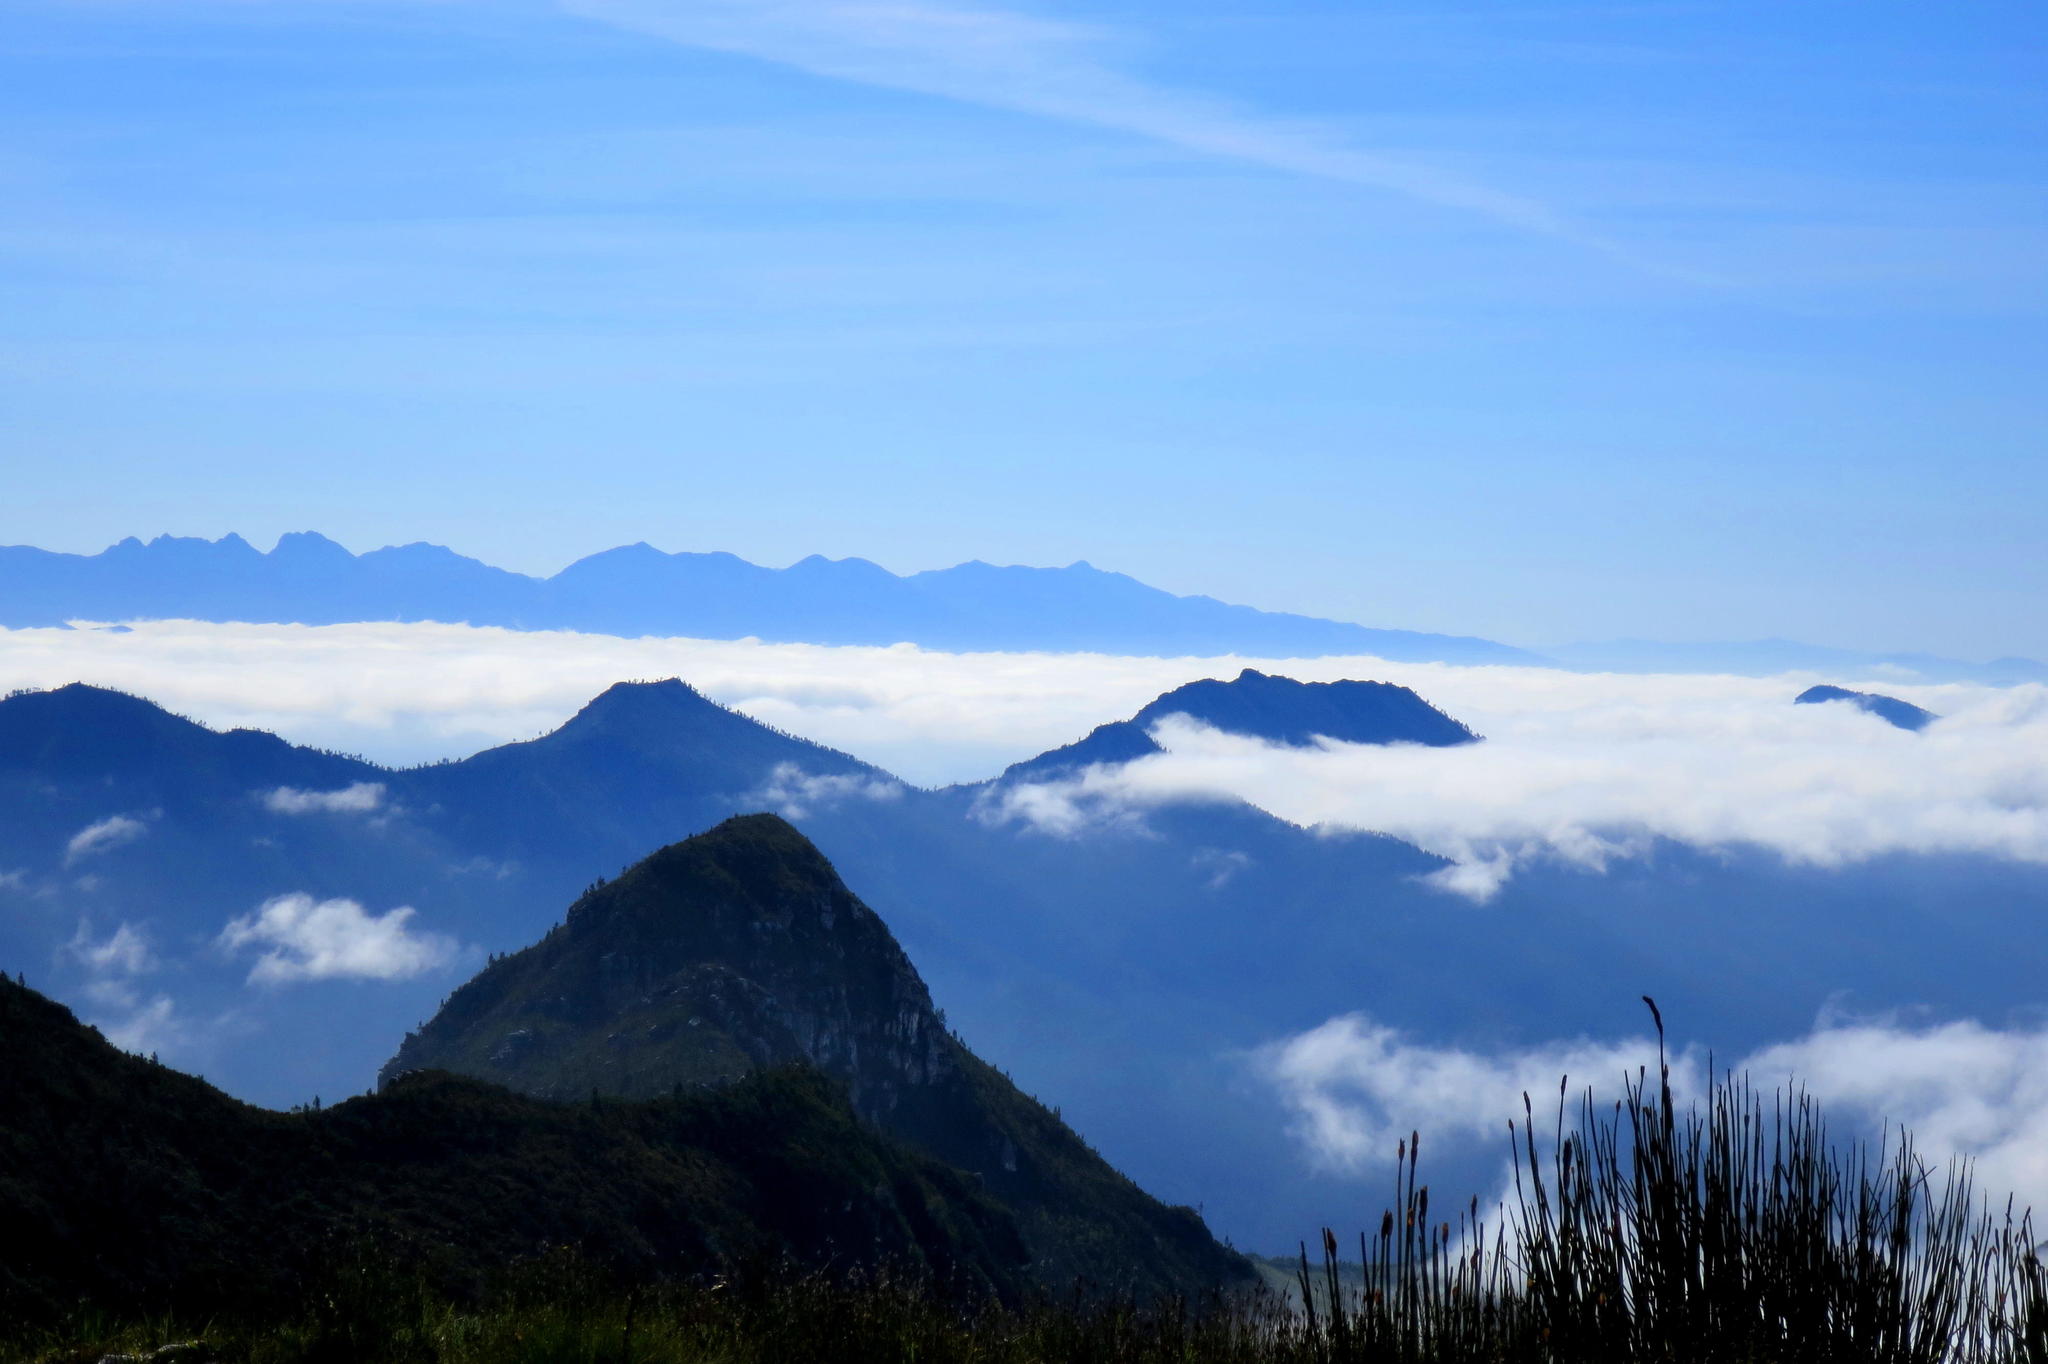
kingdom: Plantae
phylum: Tracheophyta
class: Liliopsida
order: Poales
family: Restionaceae
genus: Elegia
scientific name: Elegia thyrsoidea
